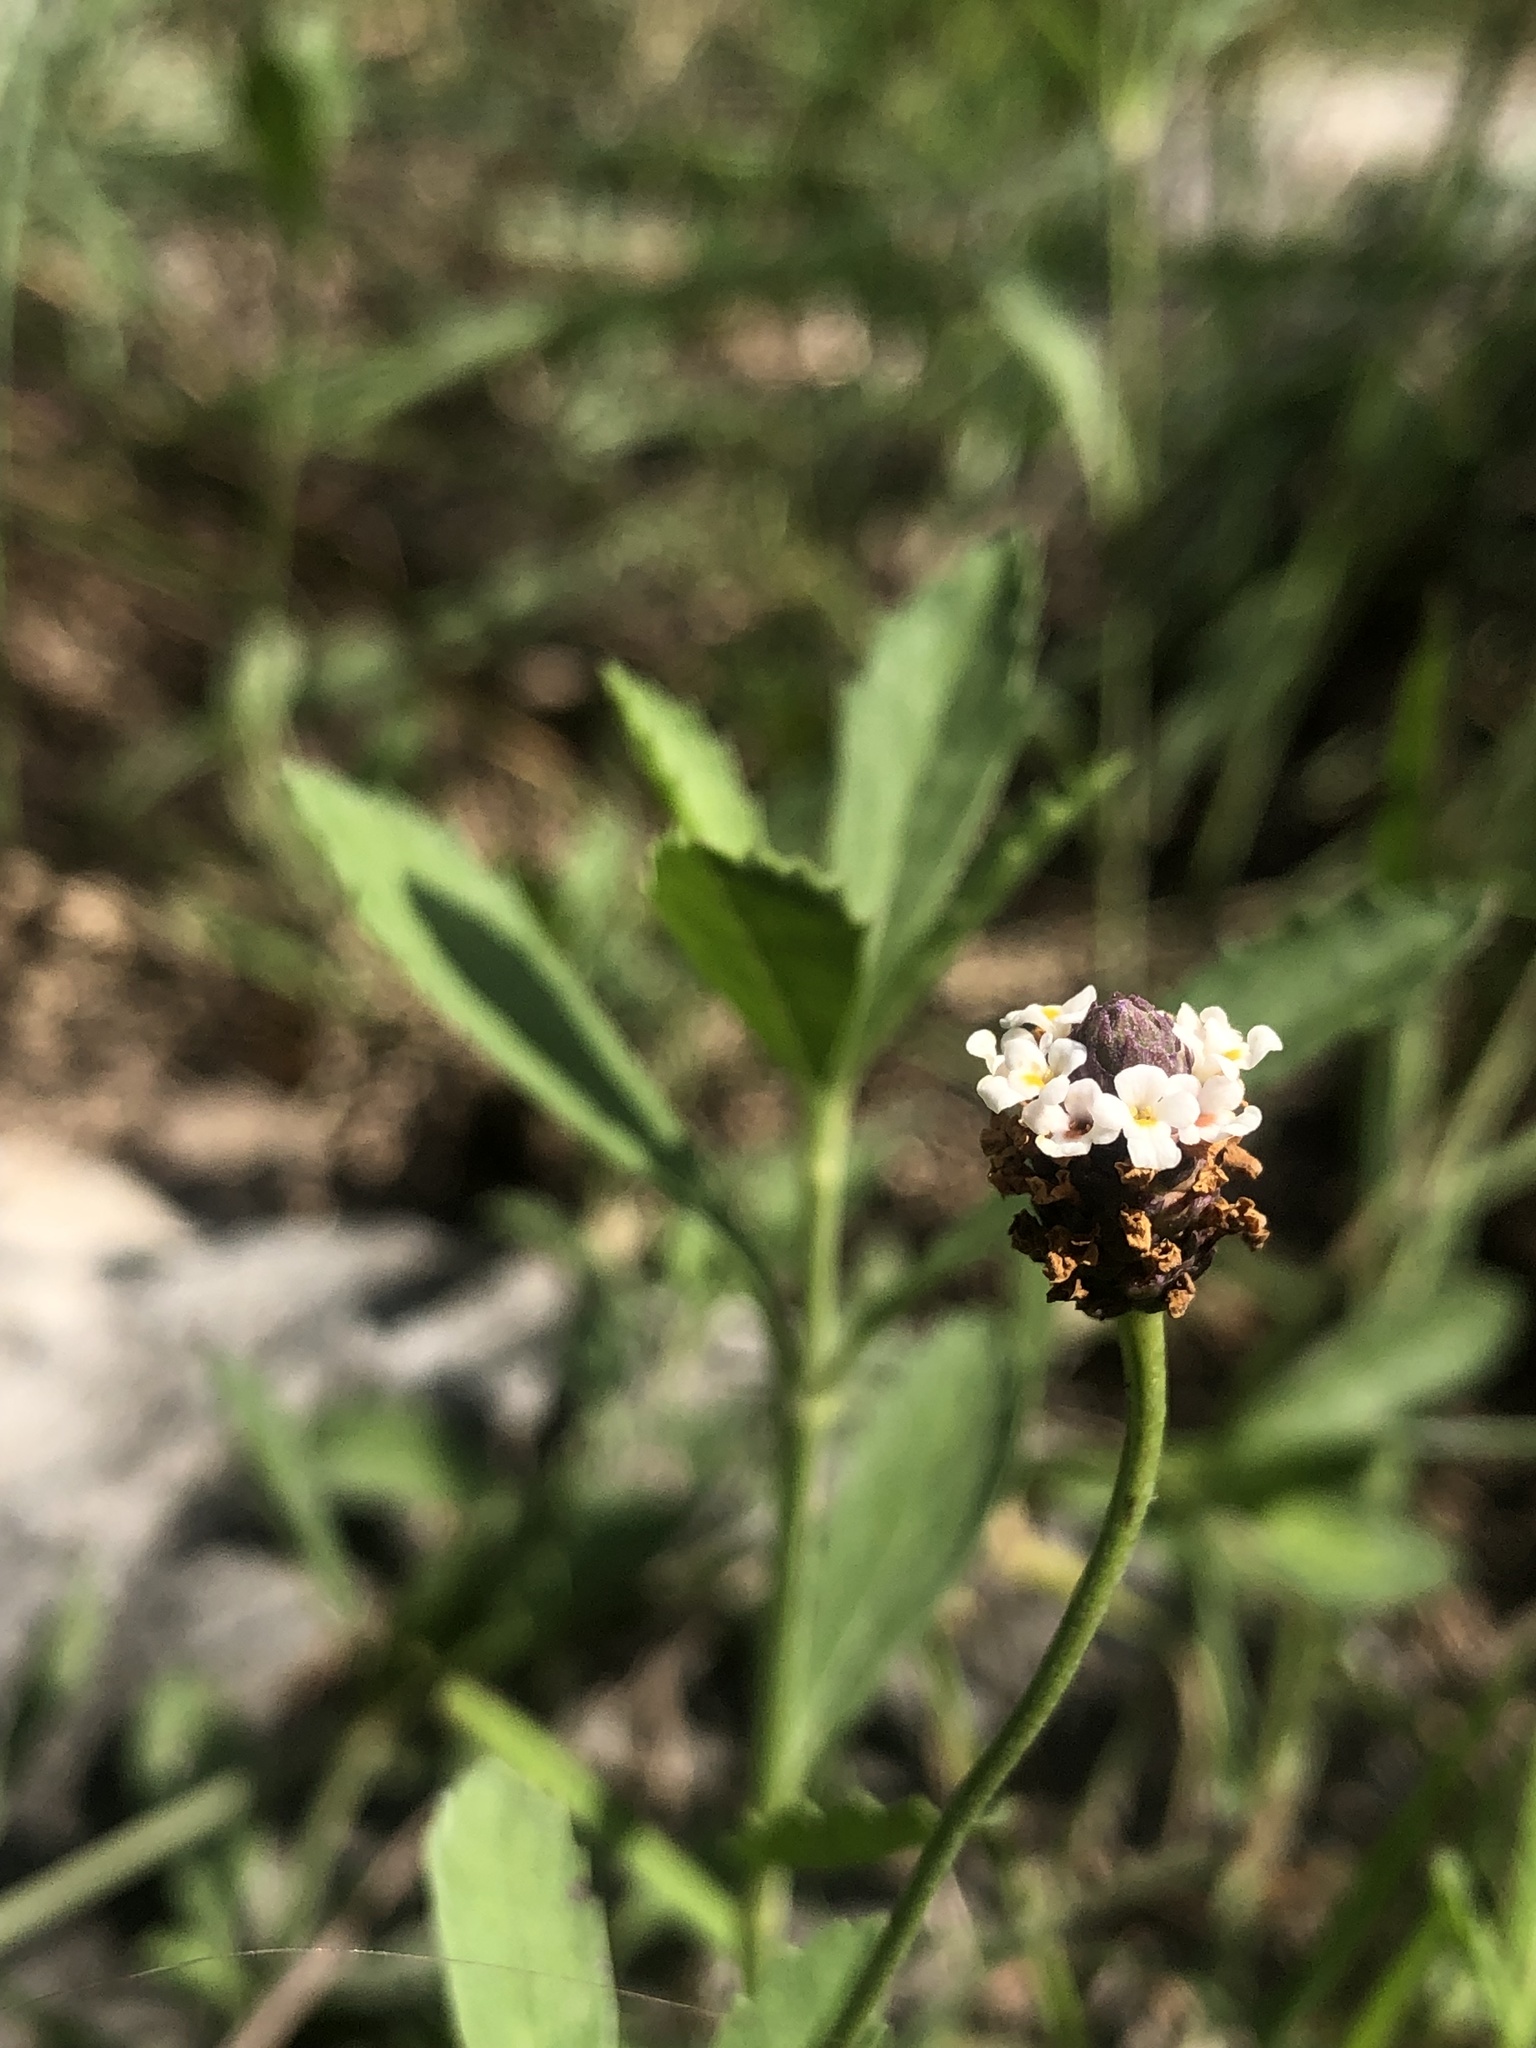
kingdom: Plantae
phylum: Tracheophyta
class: Magnoliopsida
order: Lamiales
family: Verbenaceae
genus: Phyla
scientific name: Phyla nodiflora
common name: Frogfruit
